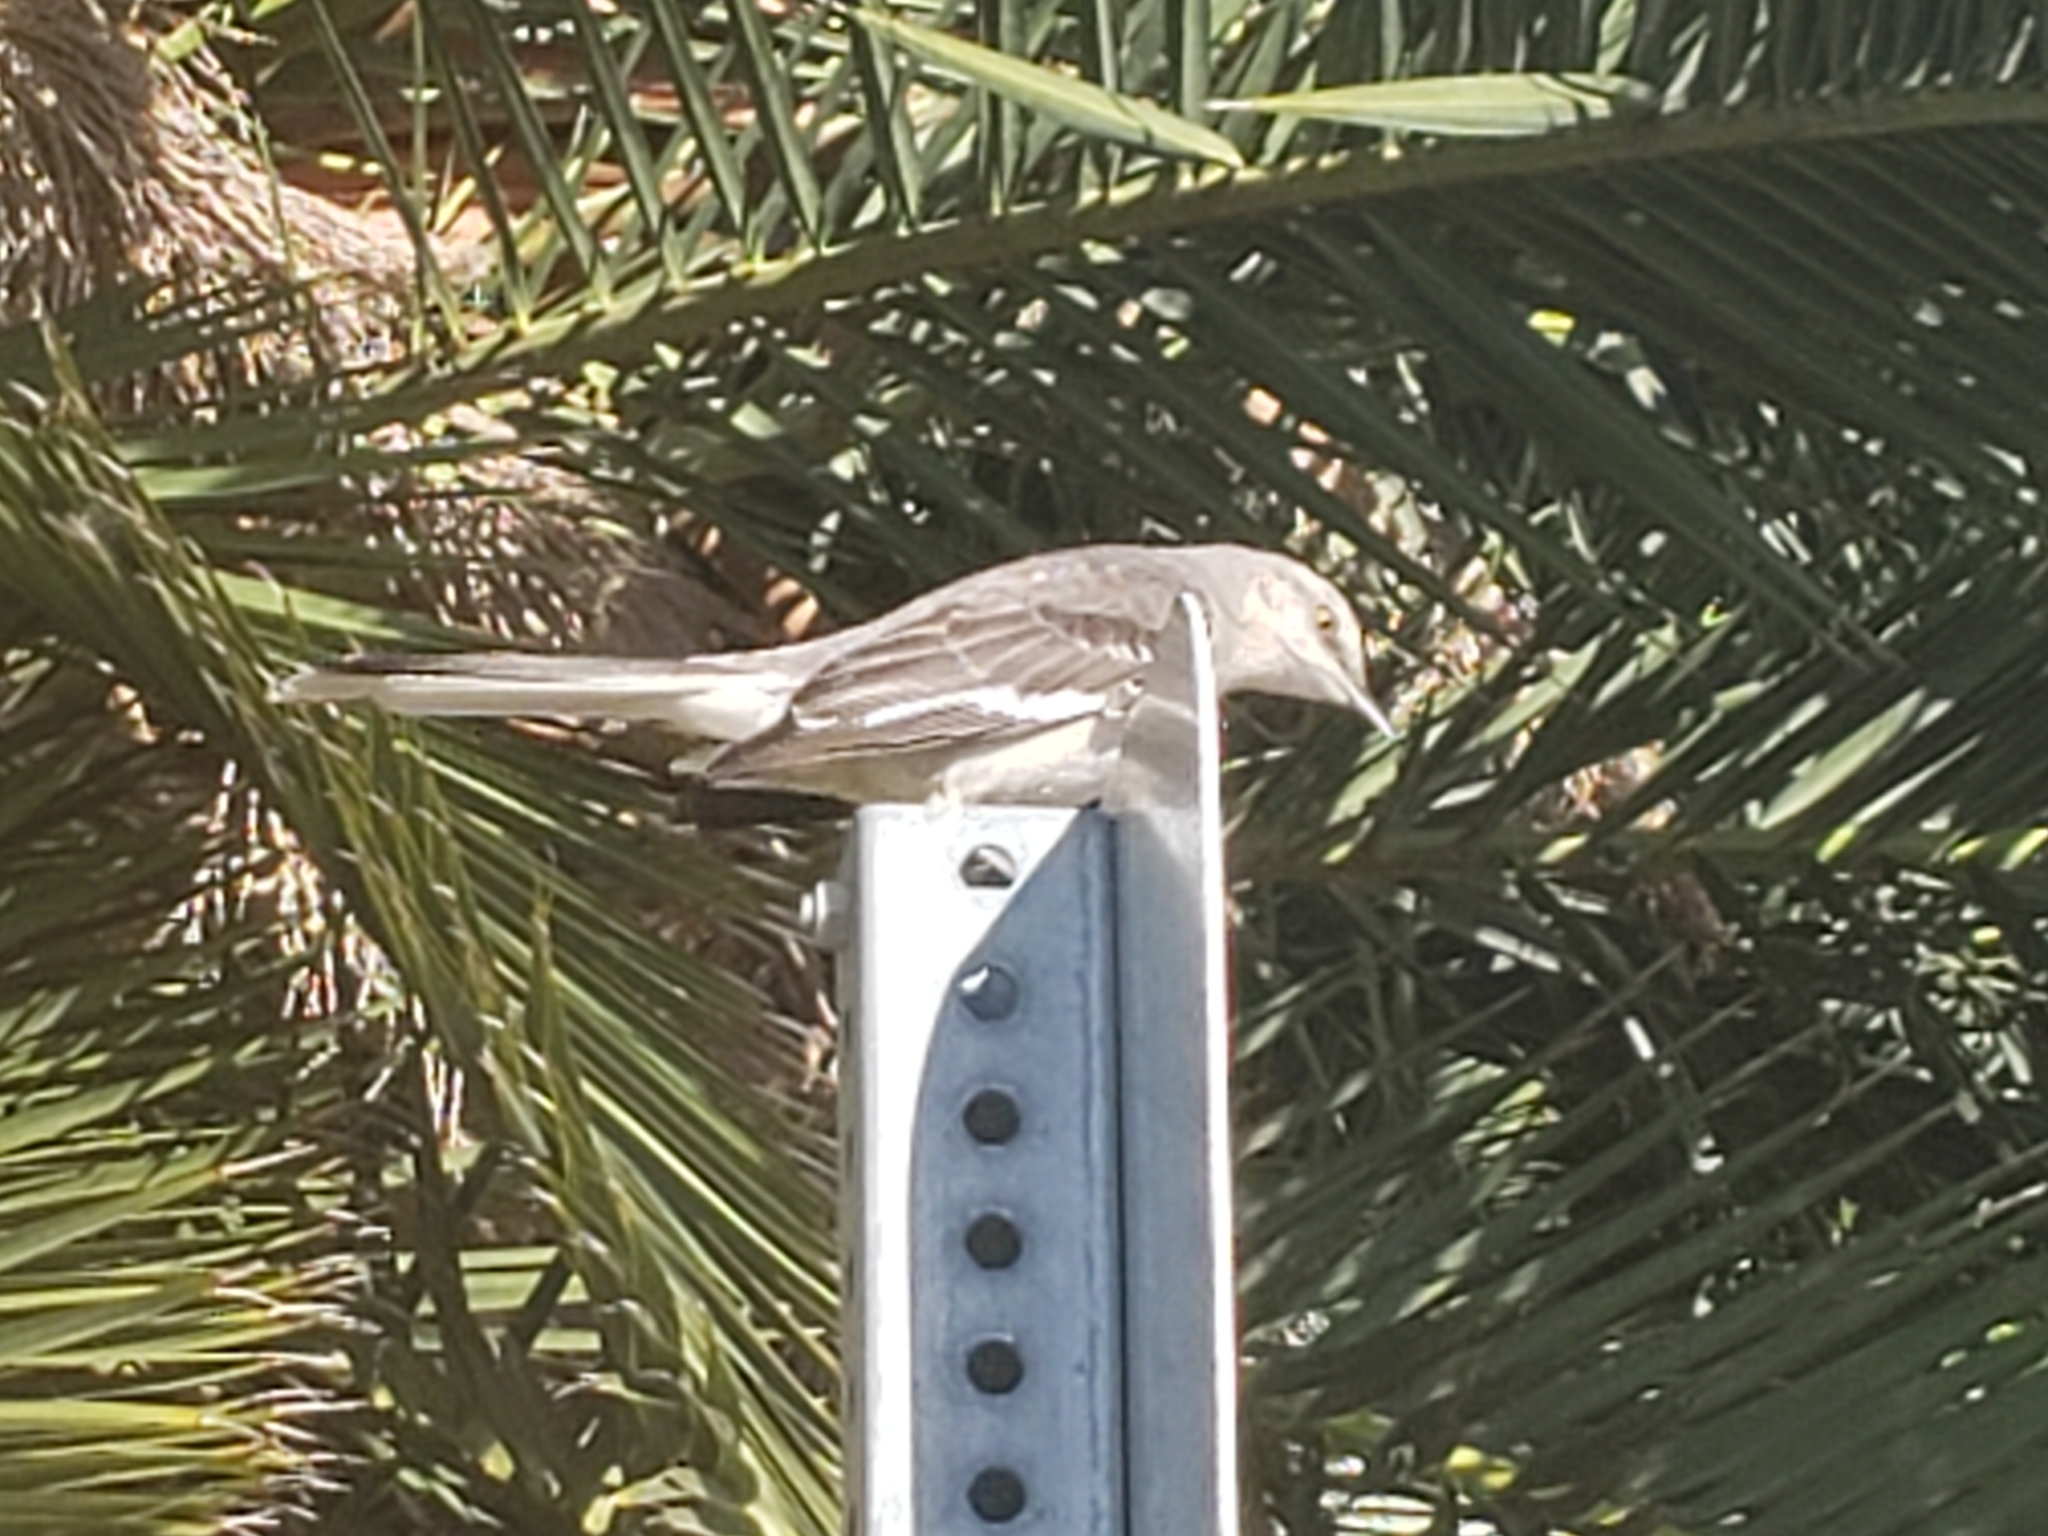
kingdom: Animalia
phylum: Chordata
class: Aves
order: Passeriformes
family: Mimidae
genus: Mimus
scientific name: Mimus polyglottos
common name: Northern mockingbird
